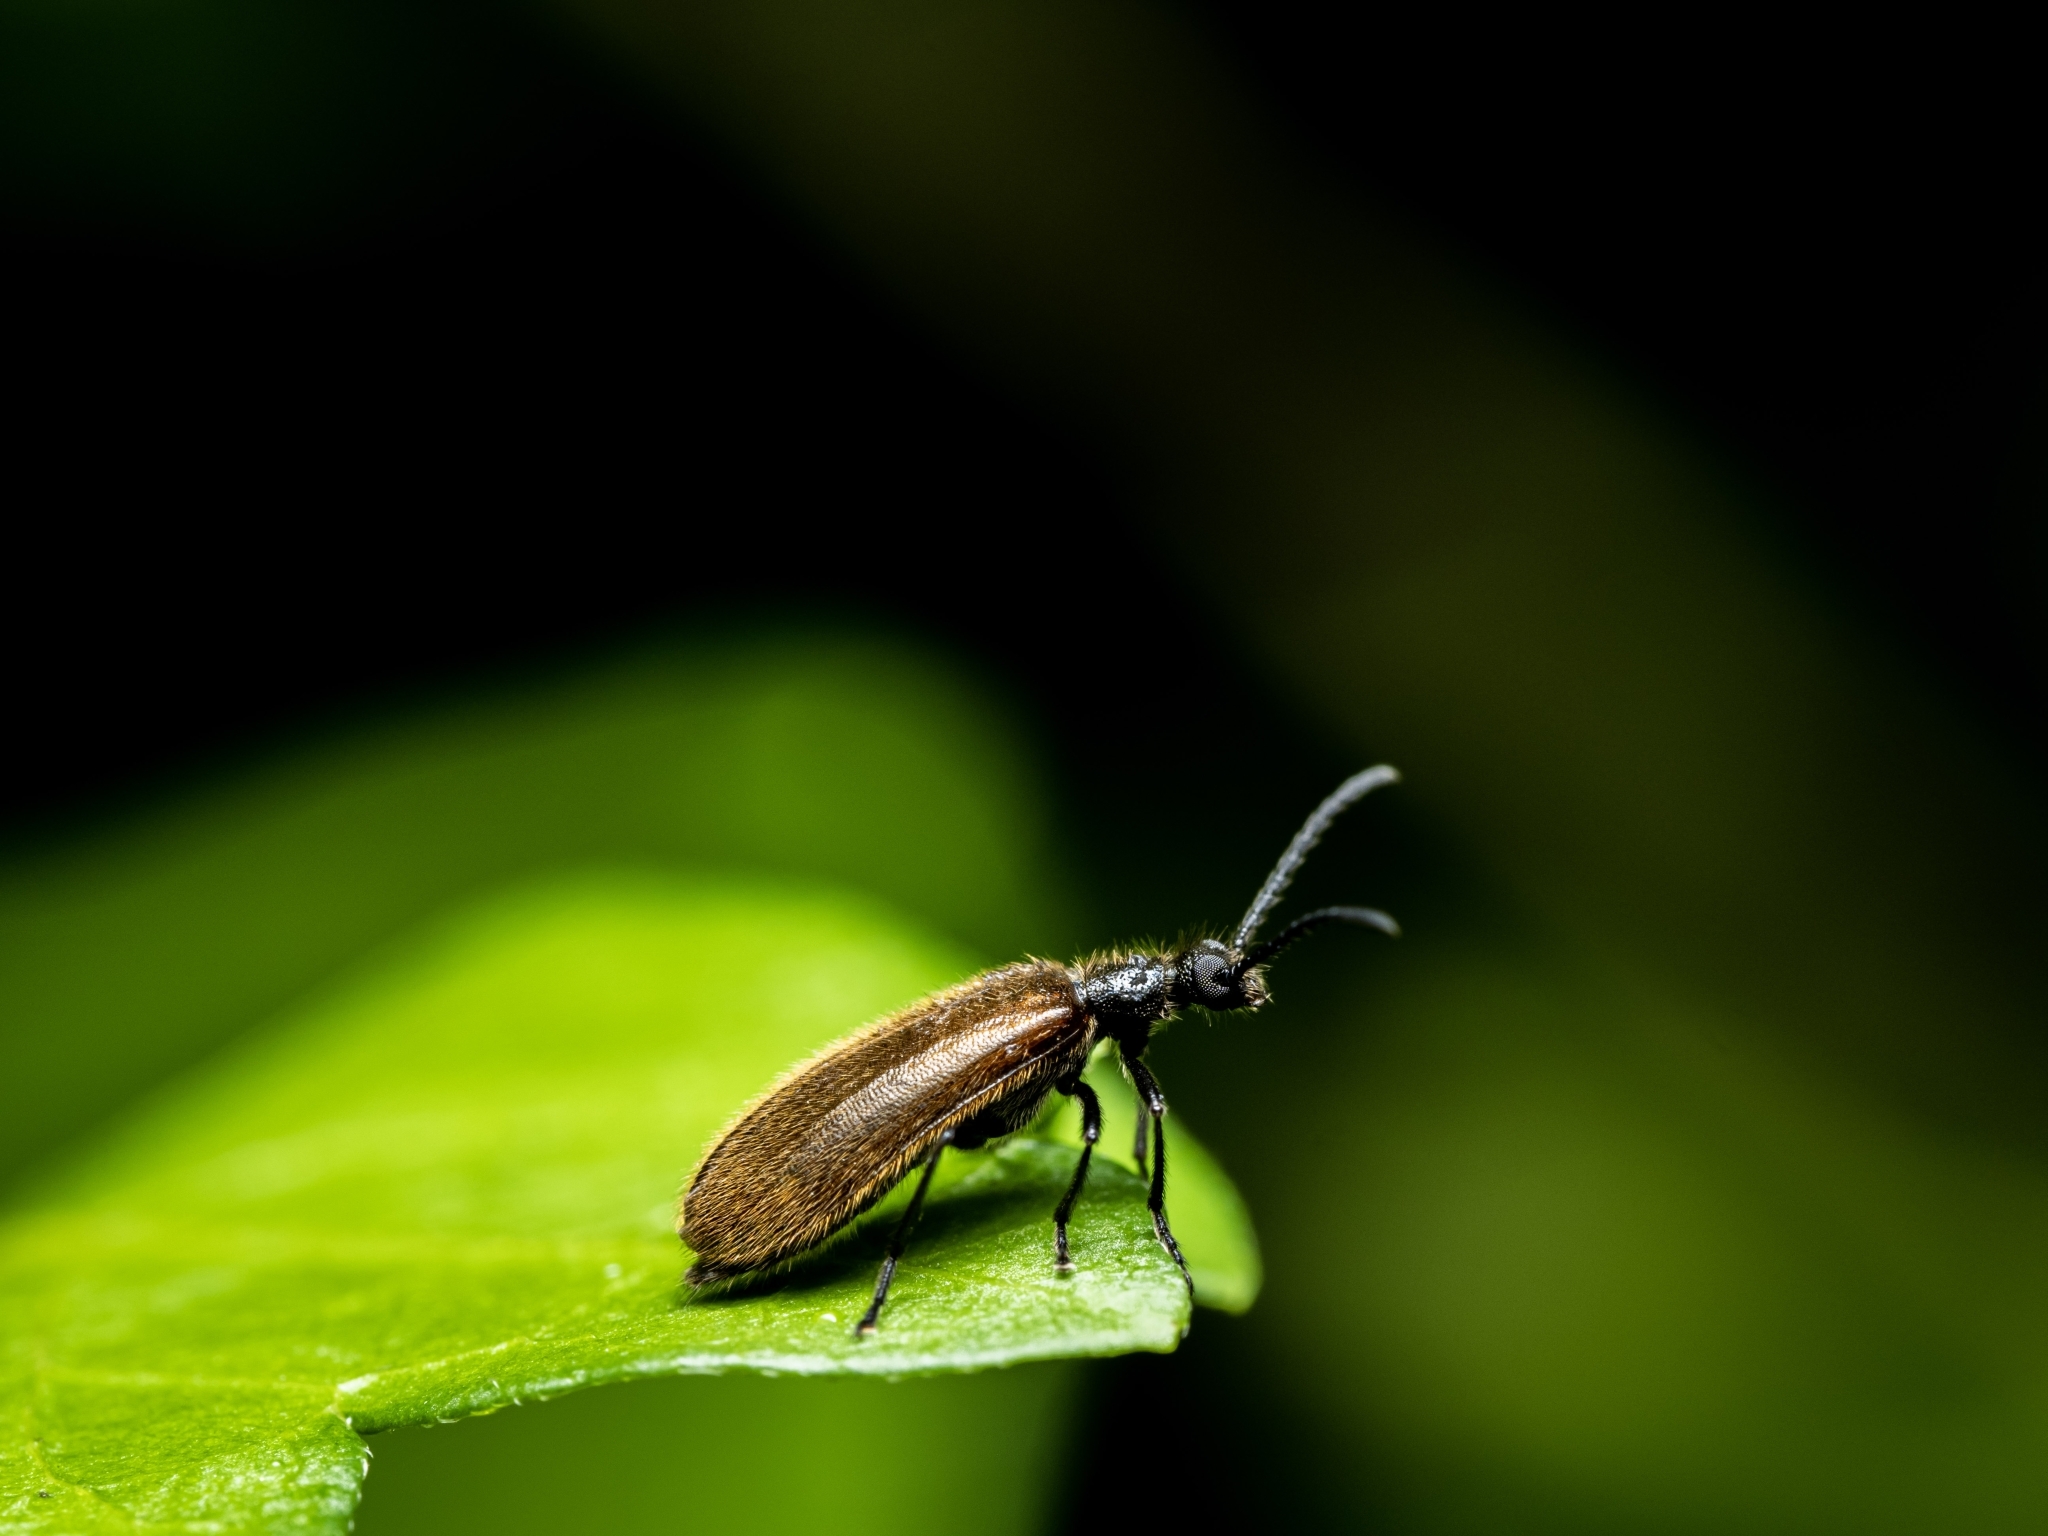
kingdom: Animalia
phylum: Arthropoda
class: Insecta
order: Coleoptera
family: Tenebrionidae
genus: Lagria
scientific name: Lagria hirta
